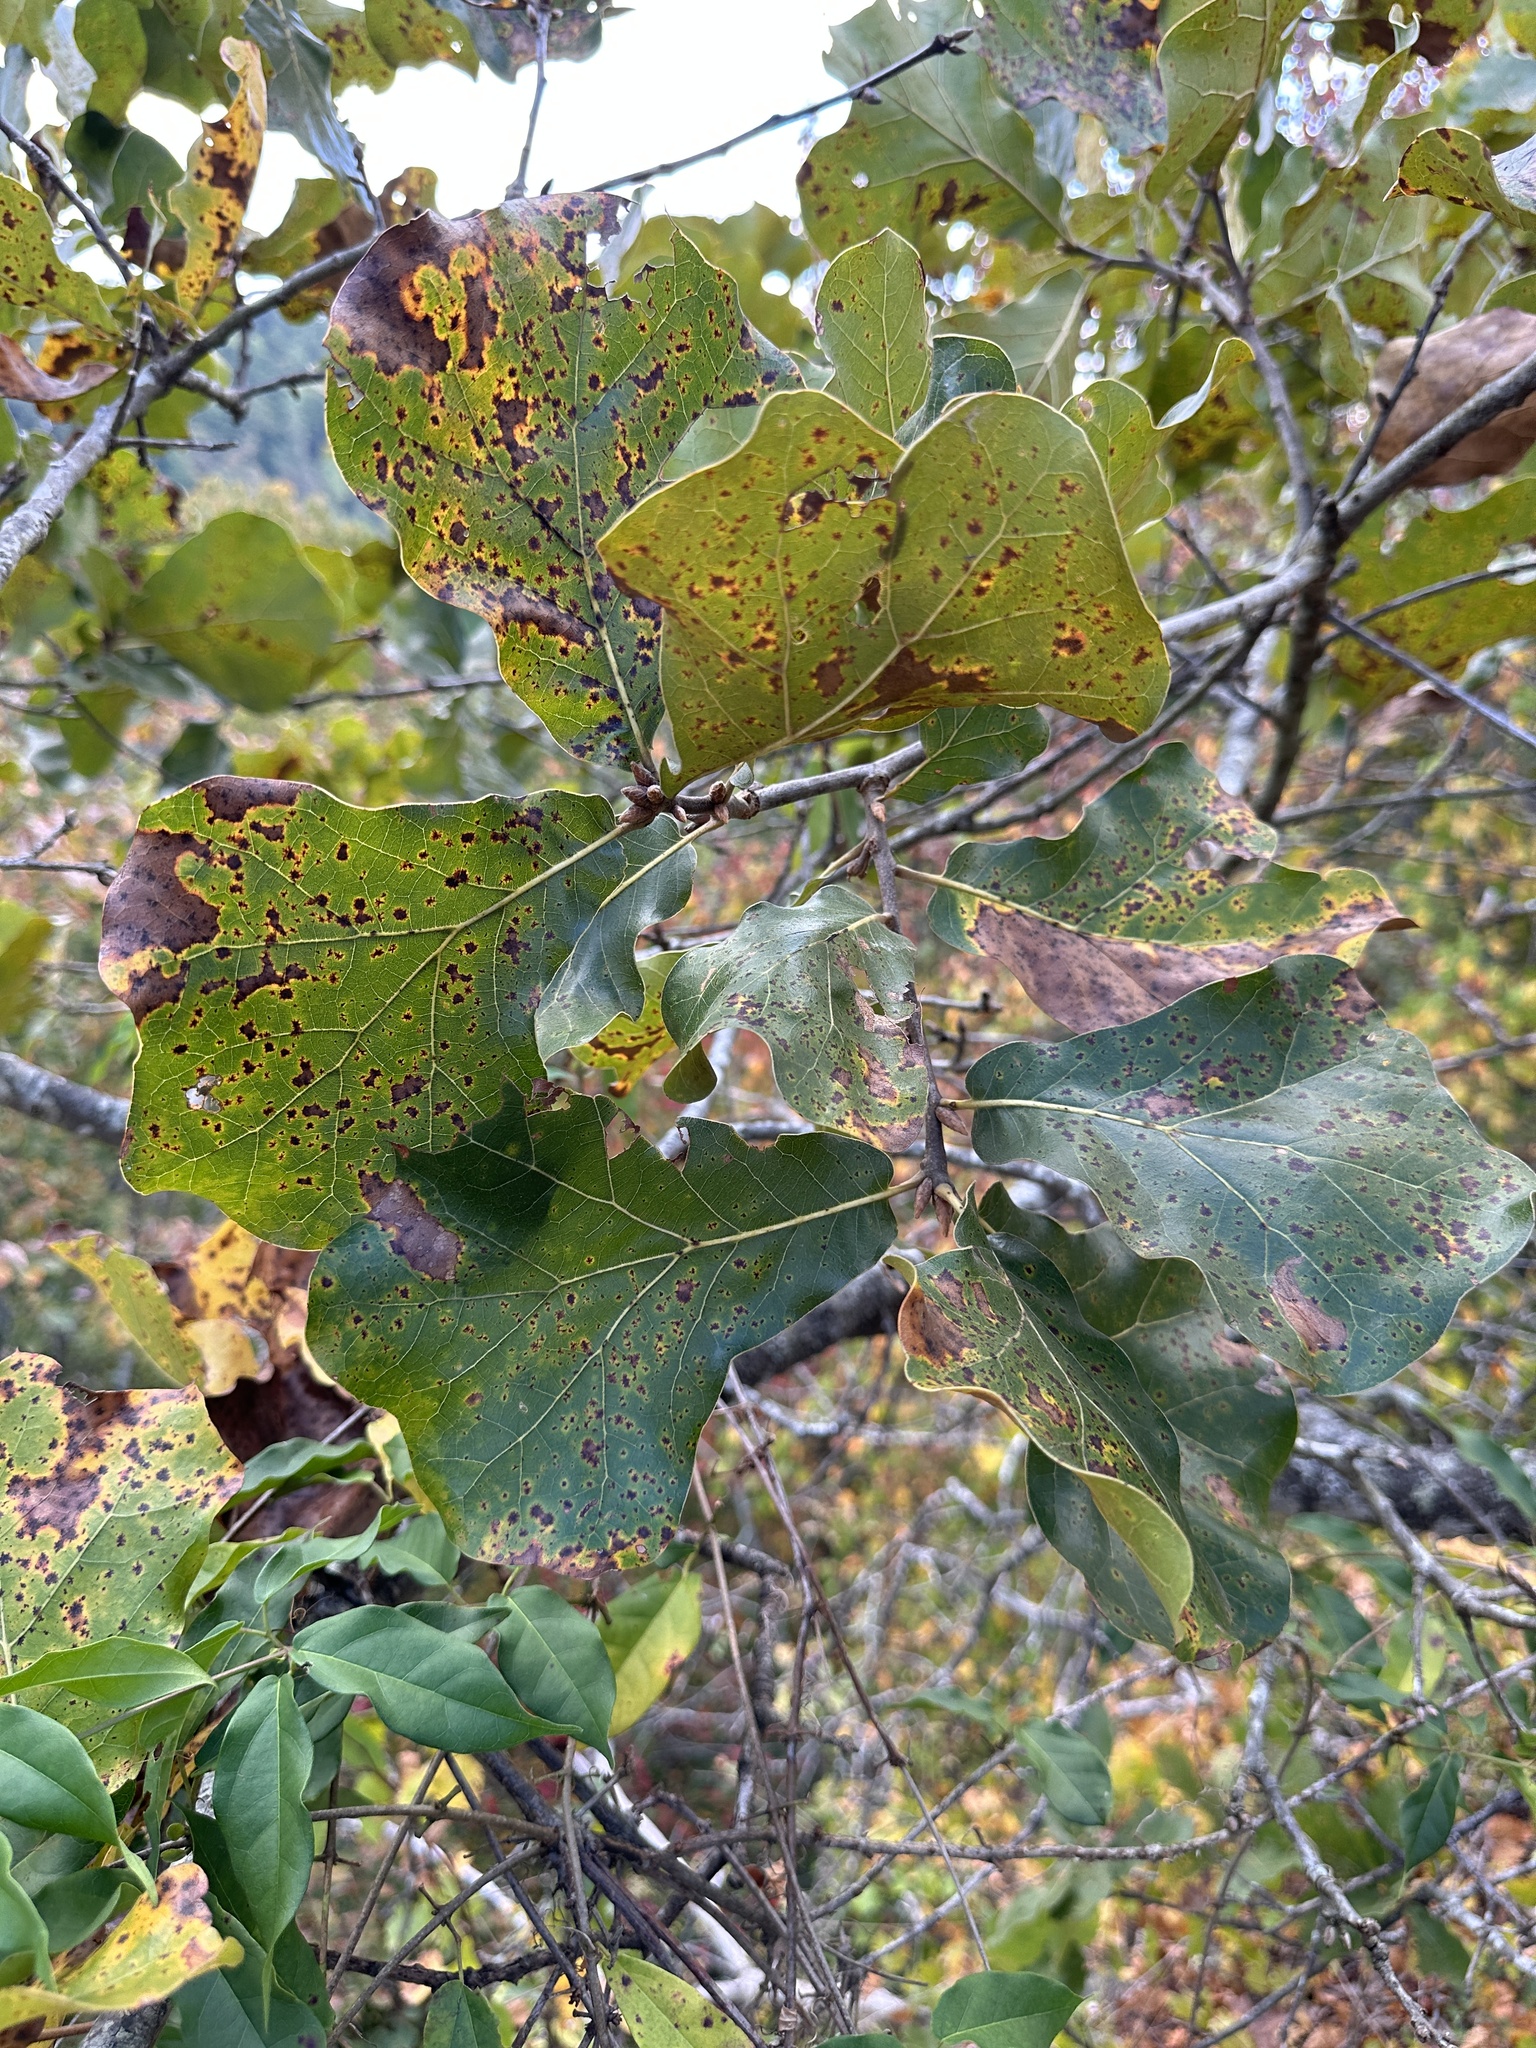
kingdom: Plantae
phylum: Tracheophyta
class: Magnoliopsida
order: Fagales
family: Fagaceae
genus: Quercus
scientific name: Quercus marilandica
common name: Blackjack oak
